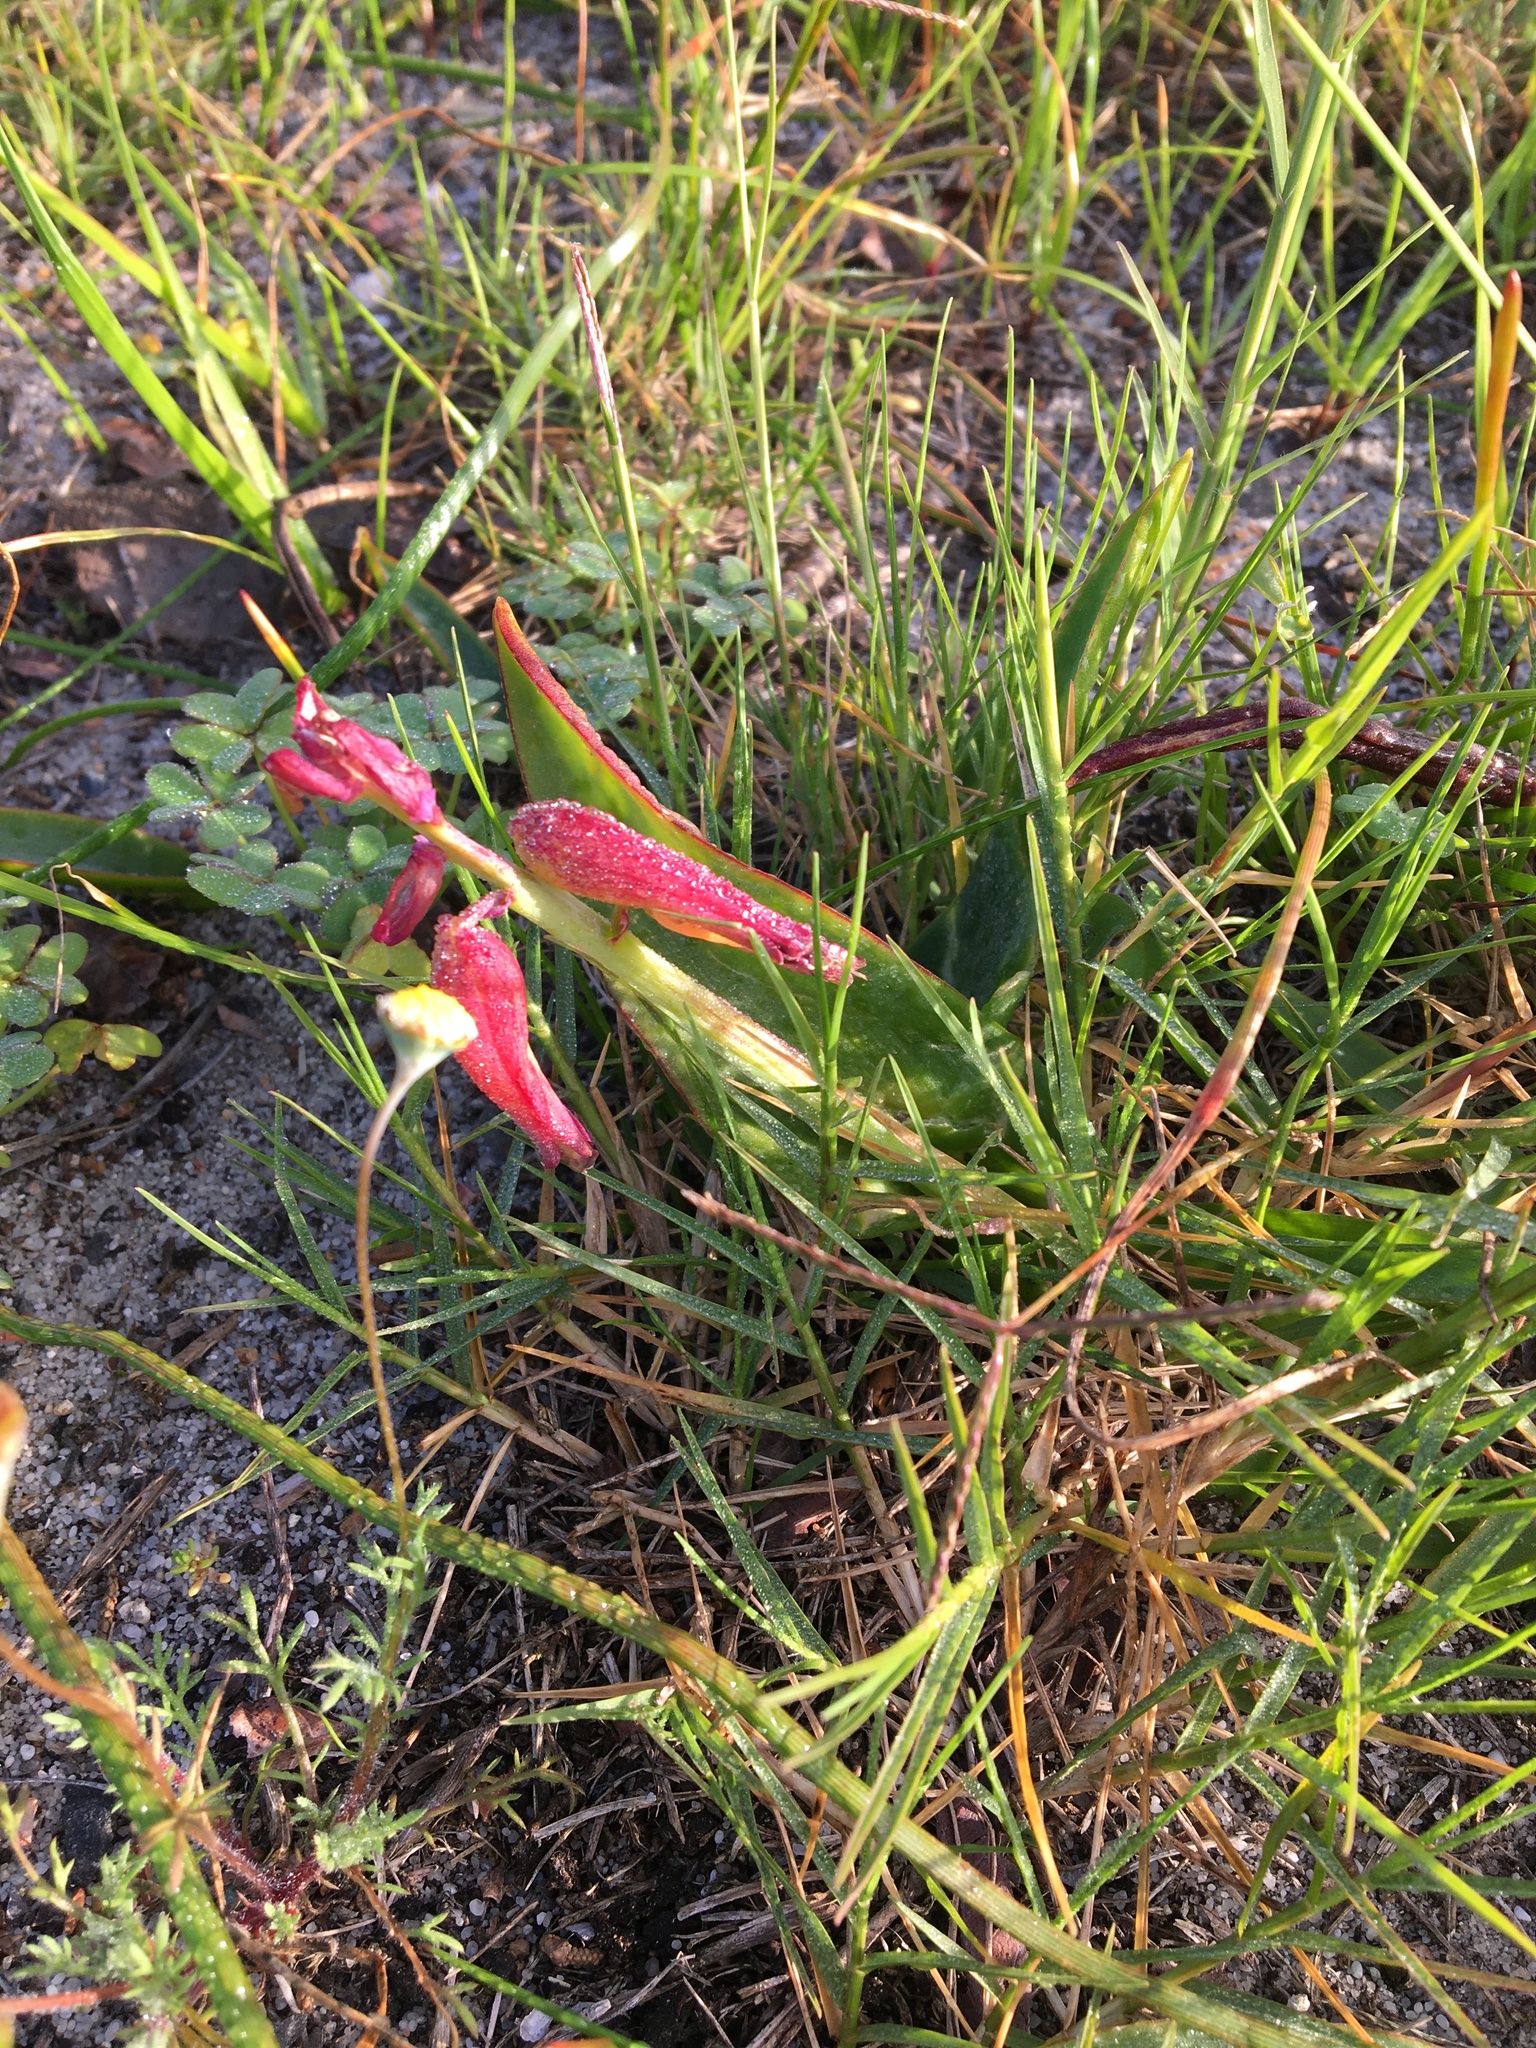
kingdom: Plantae
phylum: Tracheophyta
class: Liliopsida
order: Asparagales
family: Asparagaceae
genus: Lachenalia
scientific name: Lachenalia bulbifera
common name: Red lachenalia
